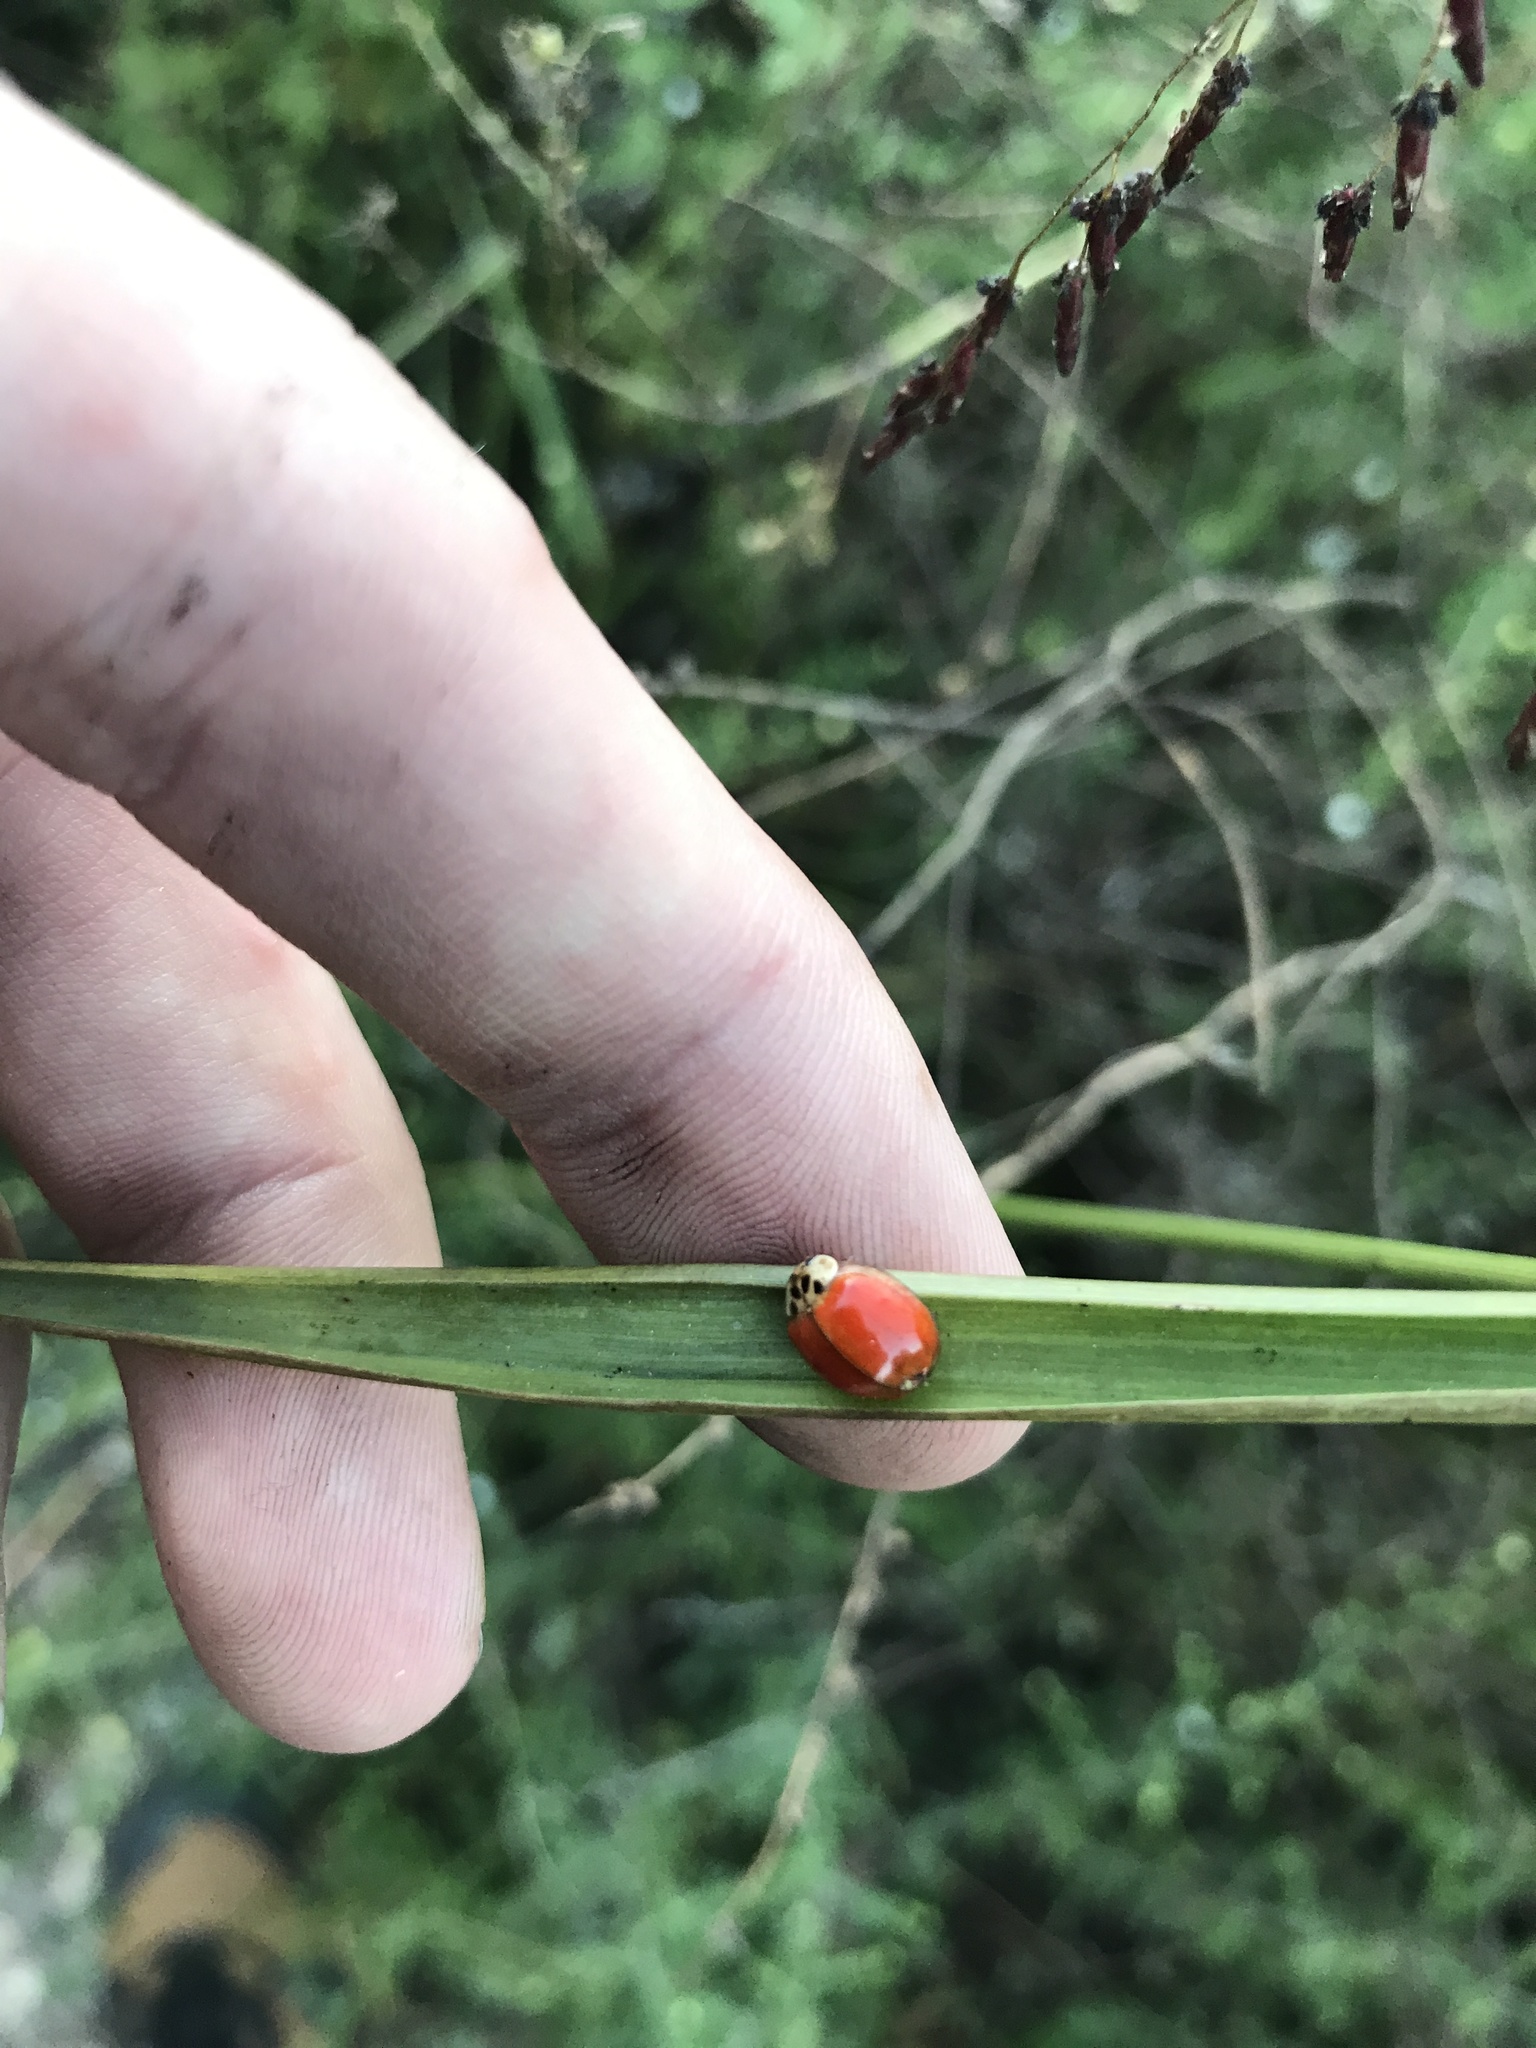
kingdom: Animalia
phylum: Arthropoda
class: Insecta
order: Coleoptera
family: Coccinellidae
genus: Harmonia
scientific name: Harmonia axyridis
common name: Harlequin ladybird
